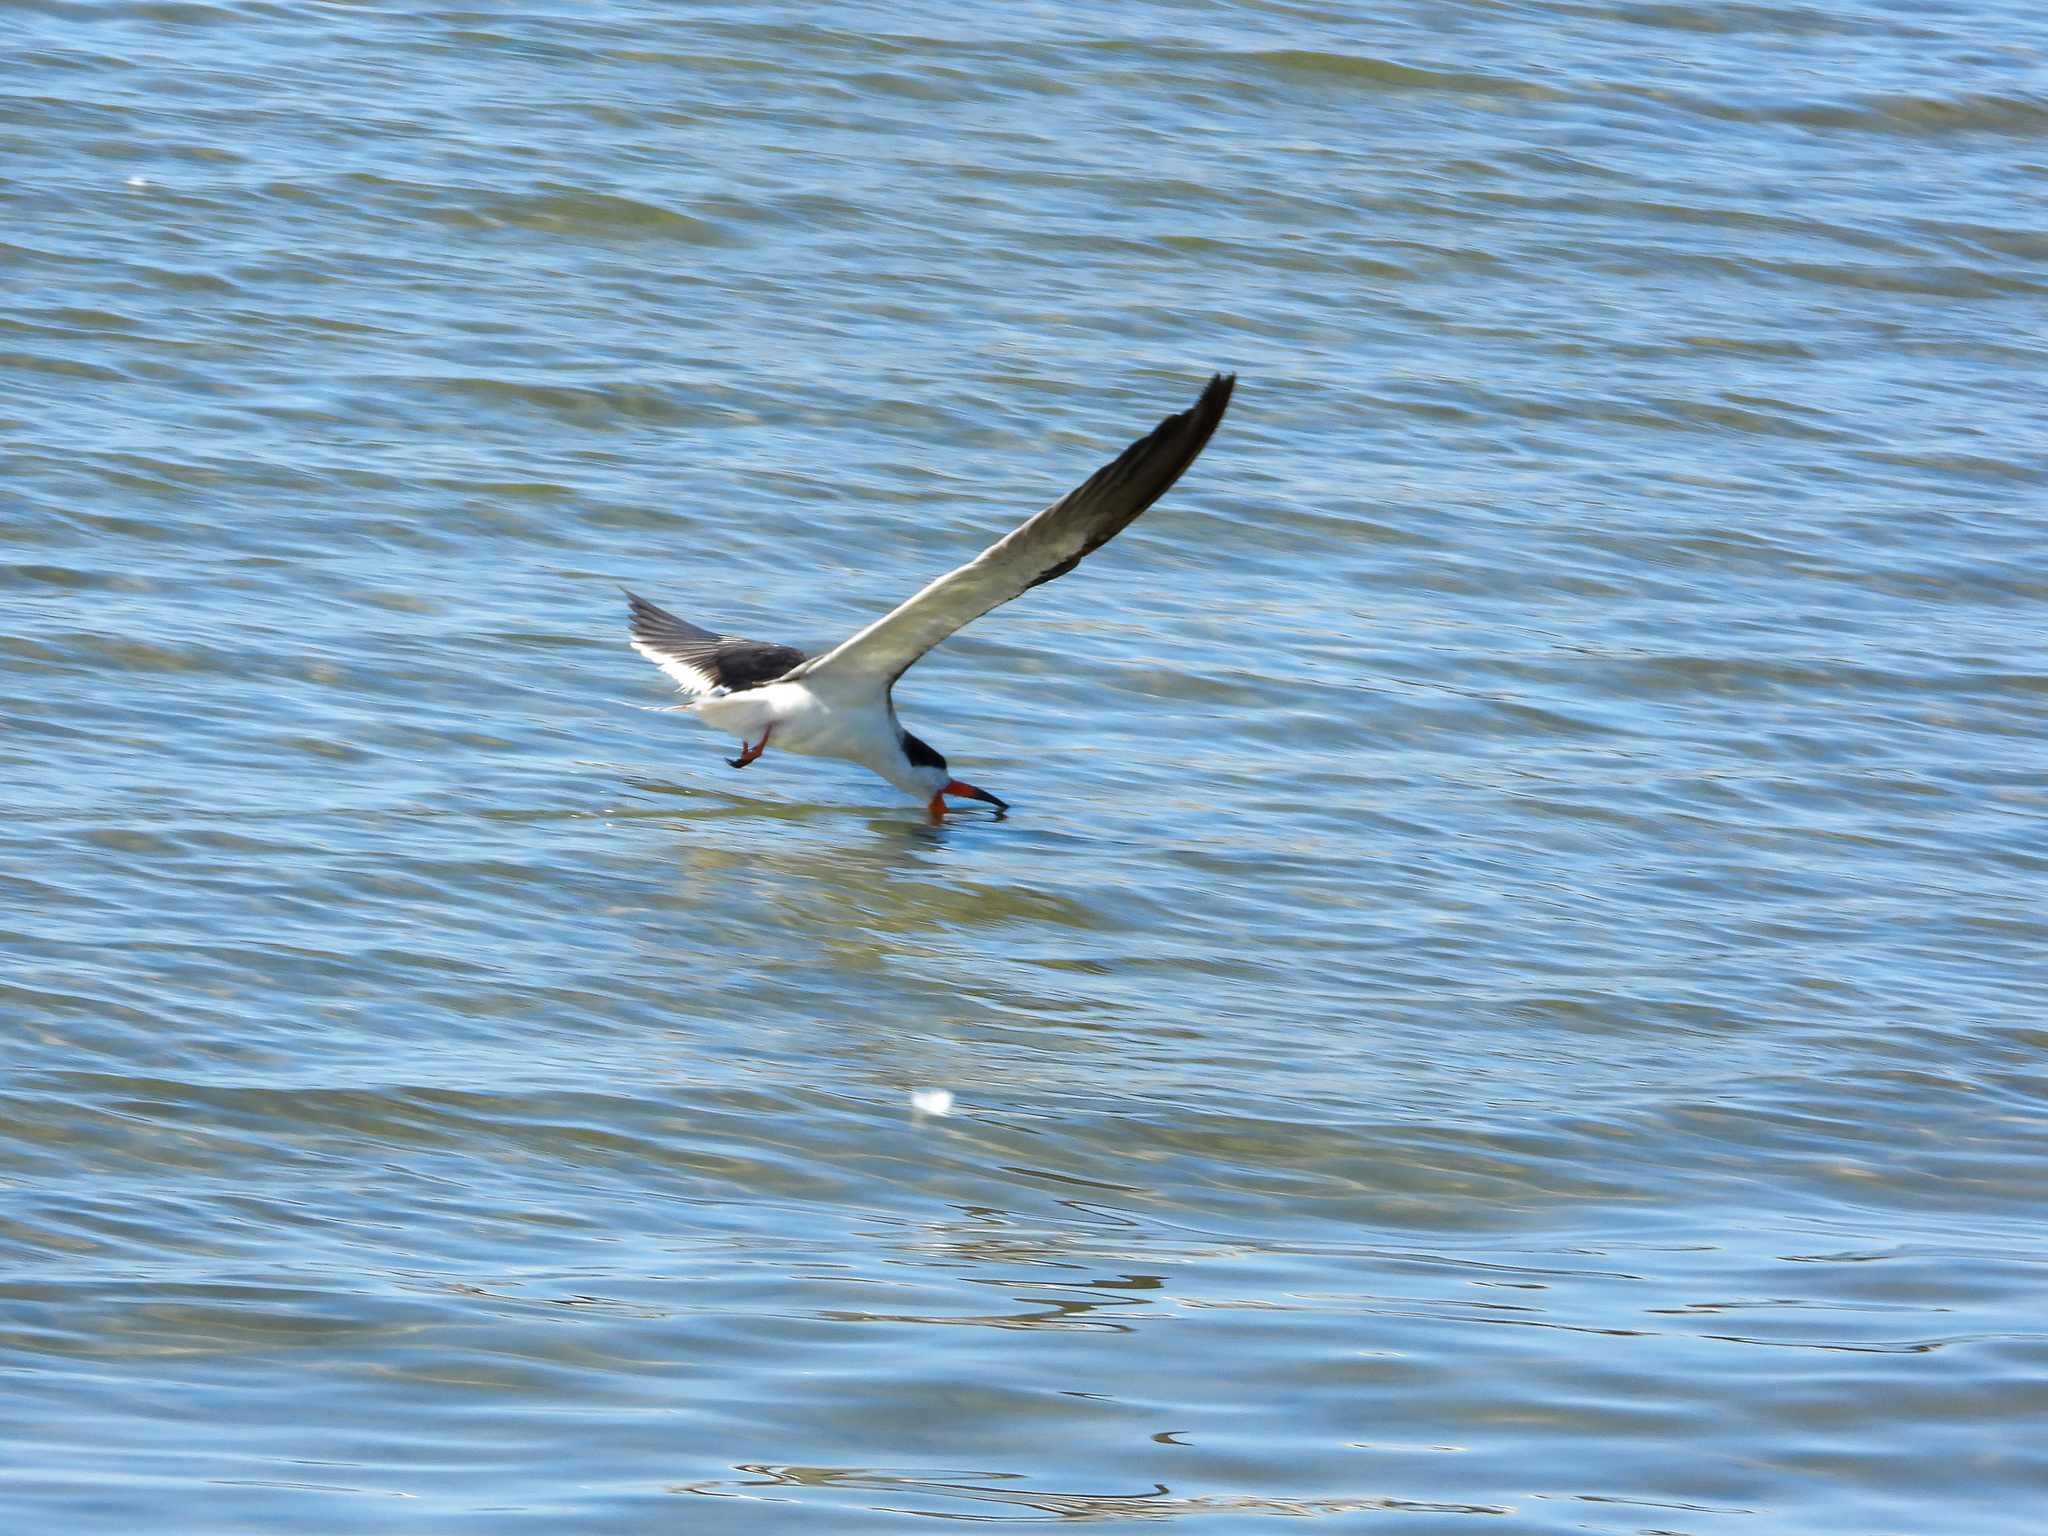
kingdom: Animalia
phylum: Chordata
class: Aves
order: Charadriiformes
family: Laridae
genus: Rynchops
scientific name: Rynchops niger
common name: Black skimmer
